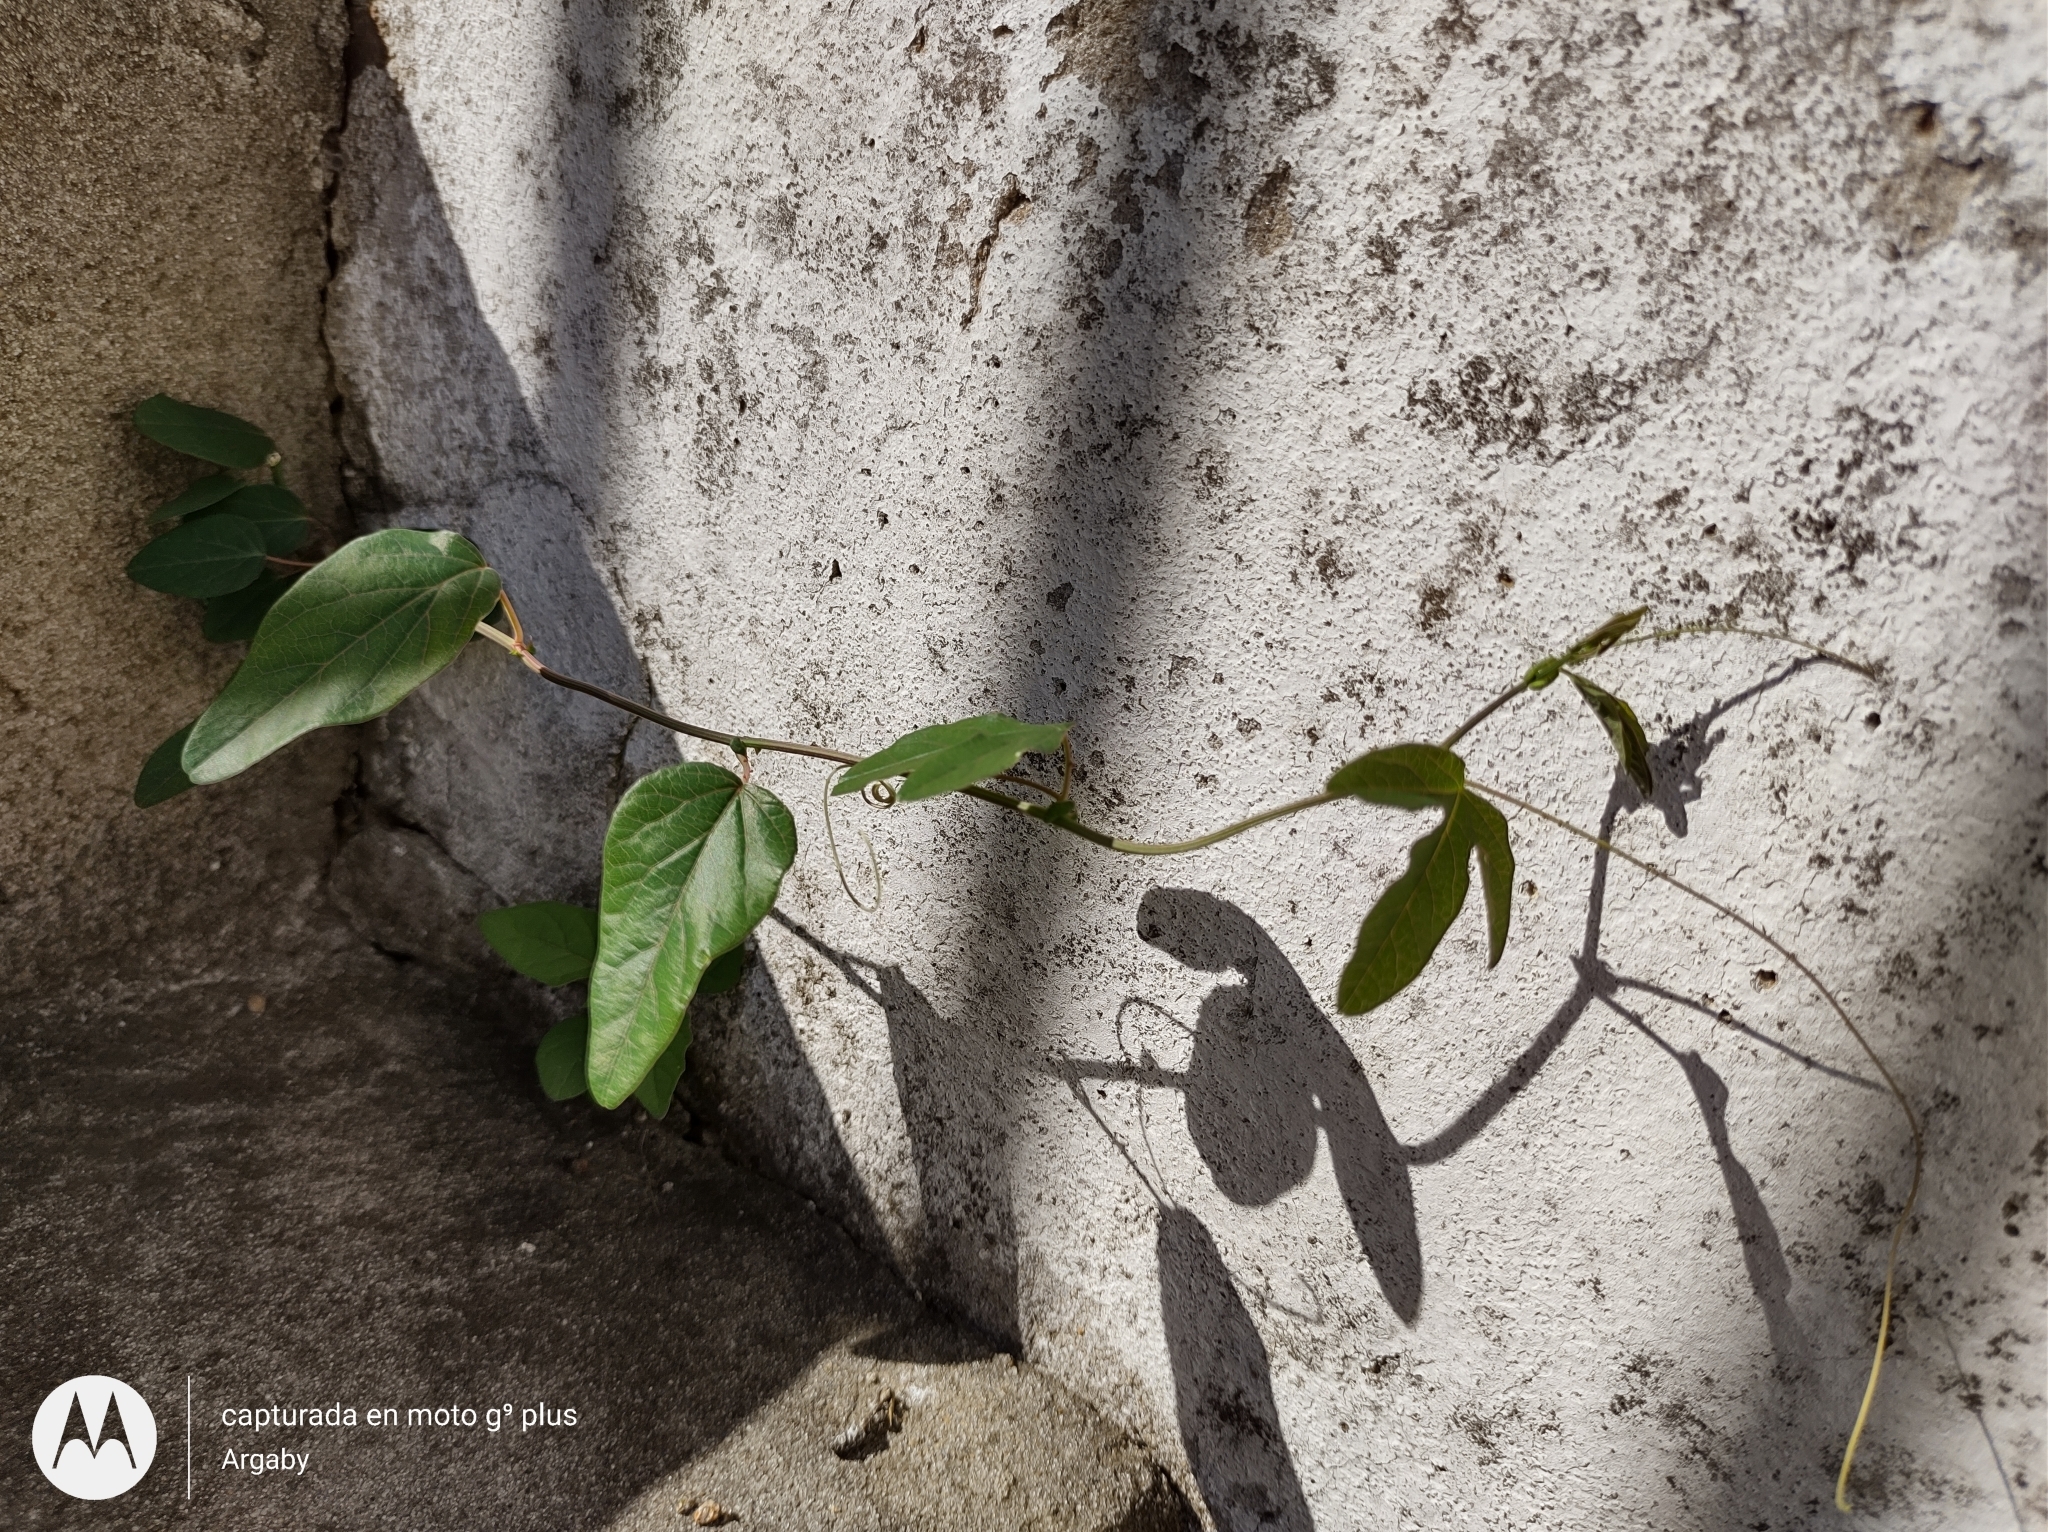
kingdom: Plantae
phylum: Tracheophyta
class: Magnoliopsida
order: Malpighiales
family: Passifloraceae
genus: Passiflora
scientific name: Passiflora caerulea
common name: Blue passionflower
